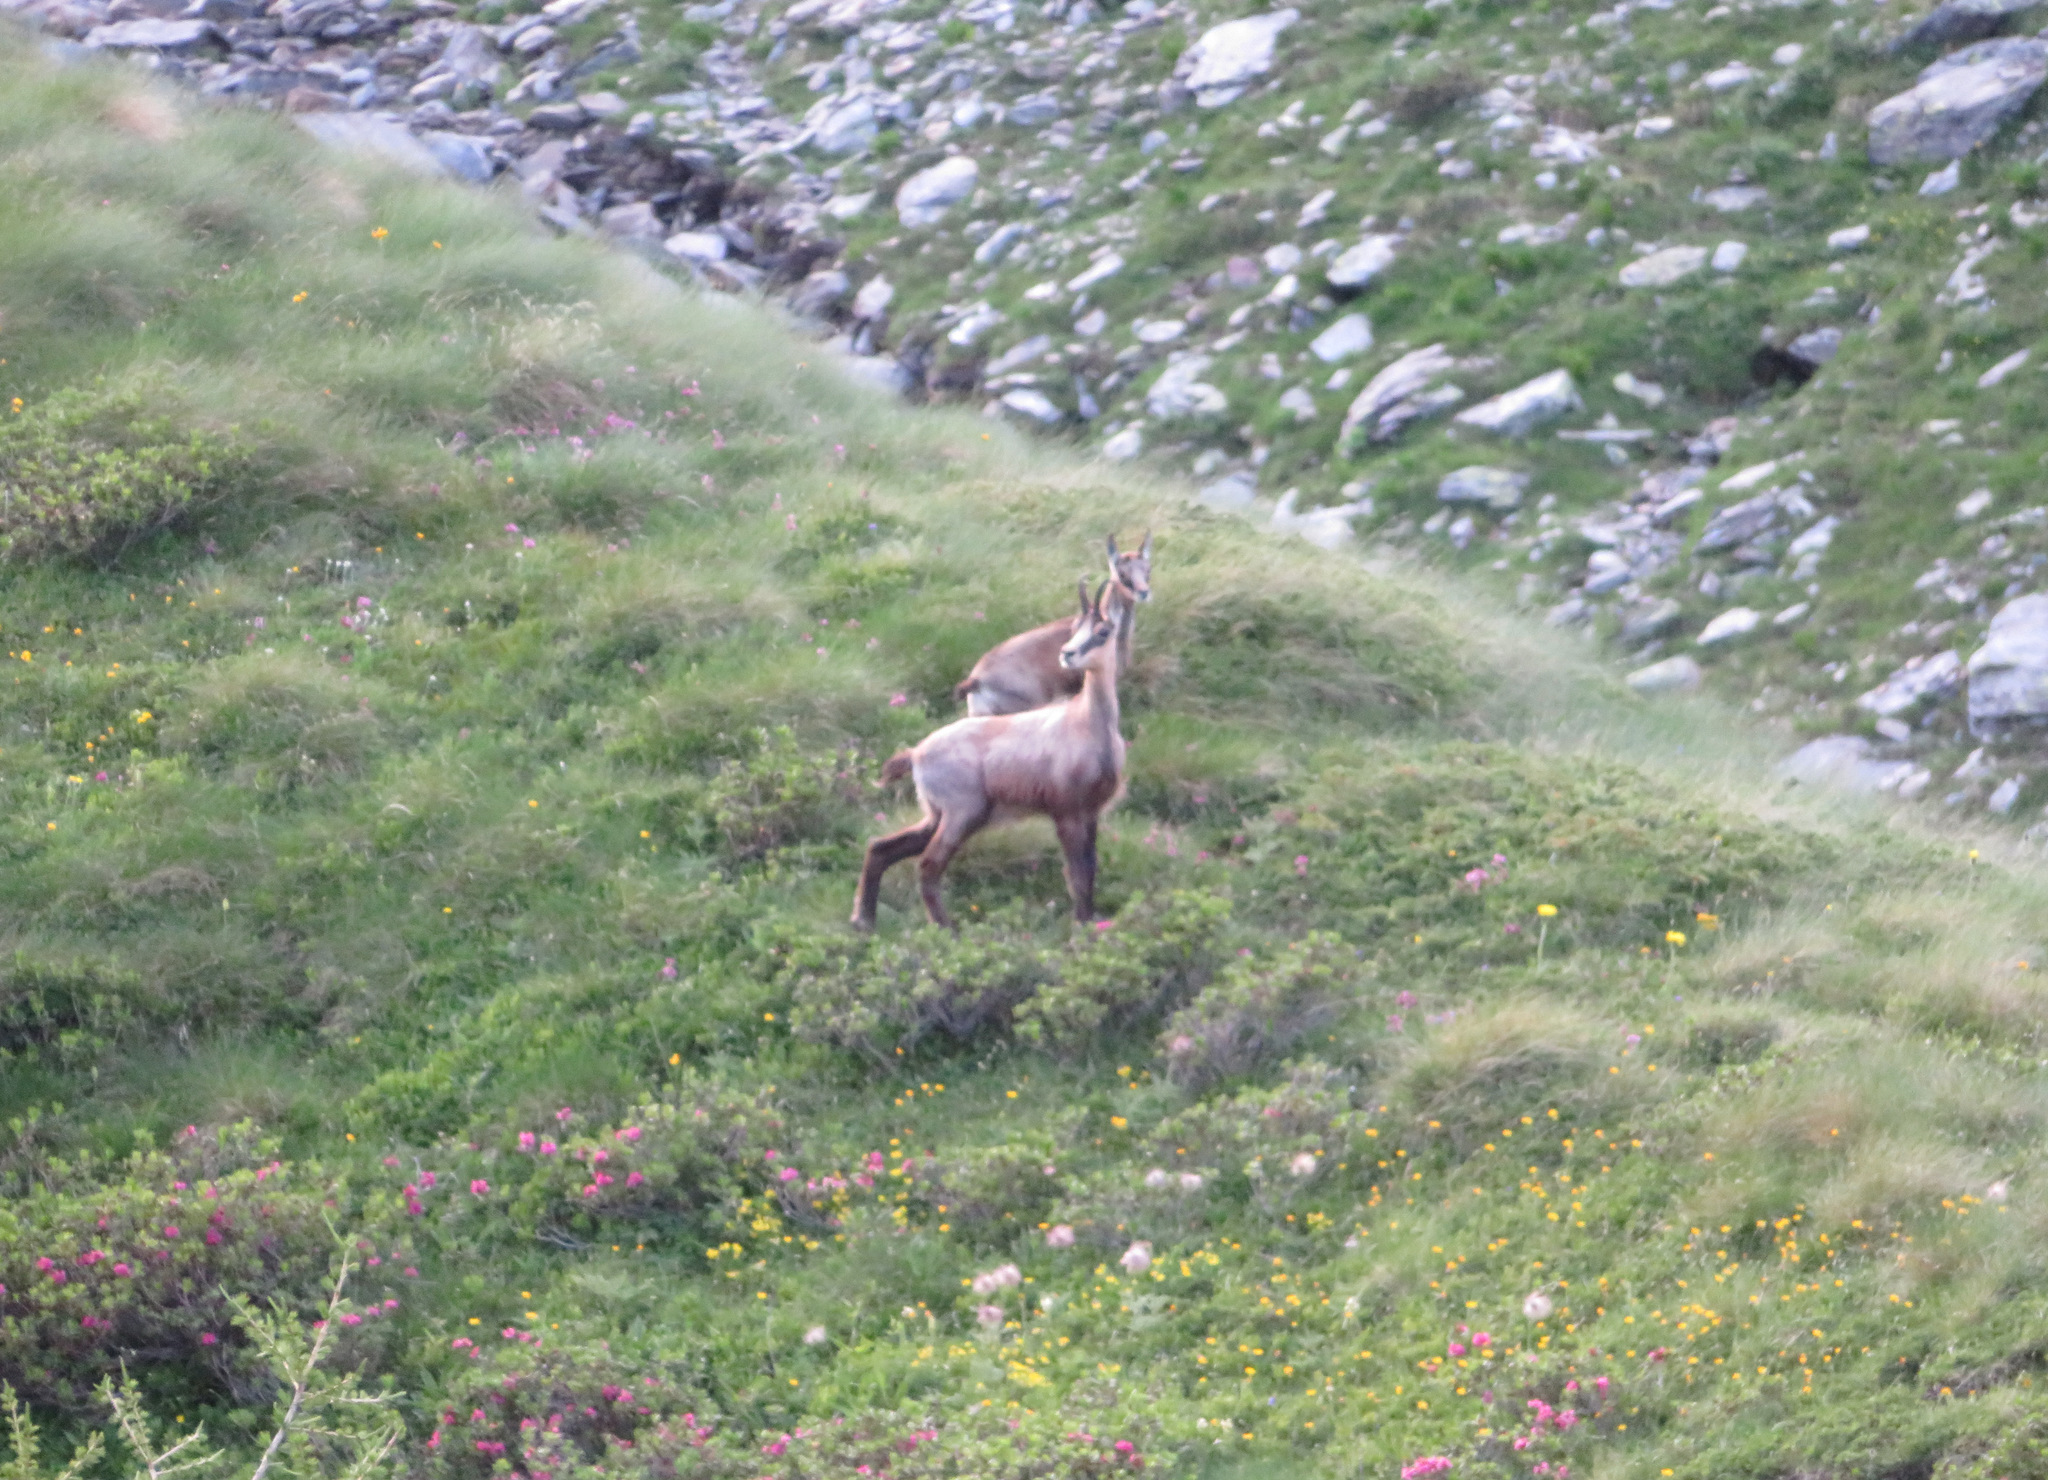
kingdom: Animalia
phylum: Chordata
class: Mammalia
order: Artiodactyla
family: Bovidae
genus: Rupicapra
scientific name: Rupicapra rupicapra
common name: Chamois
